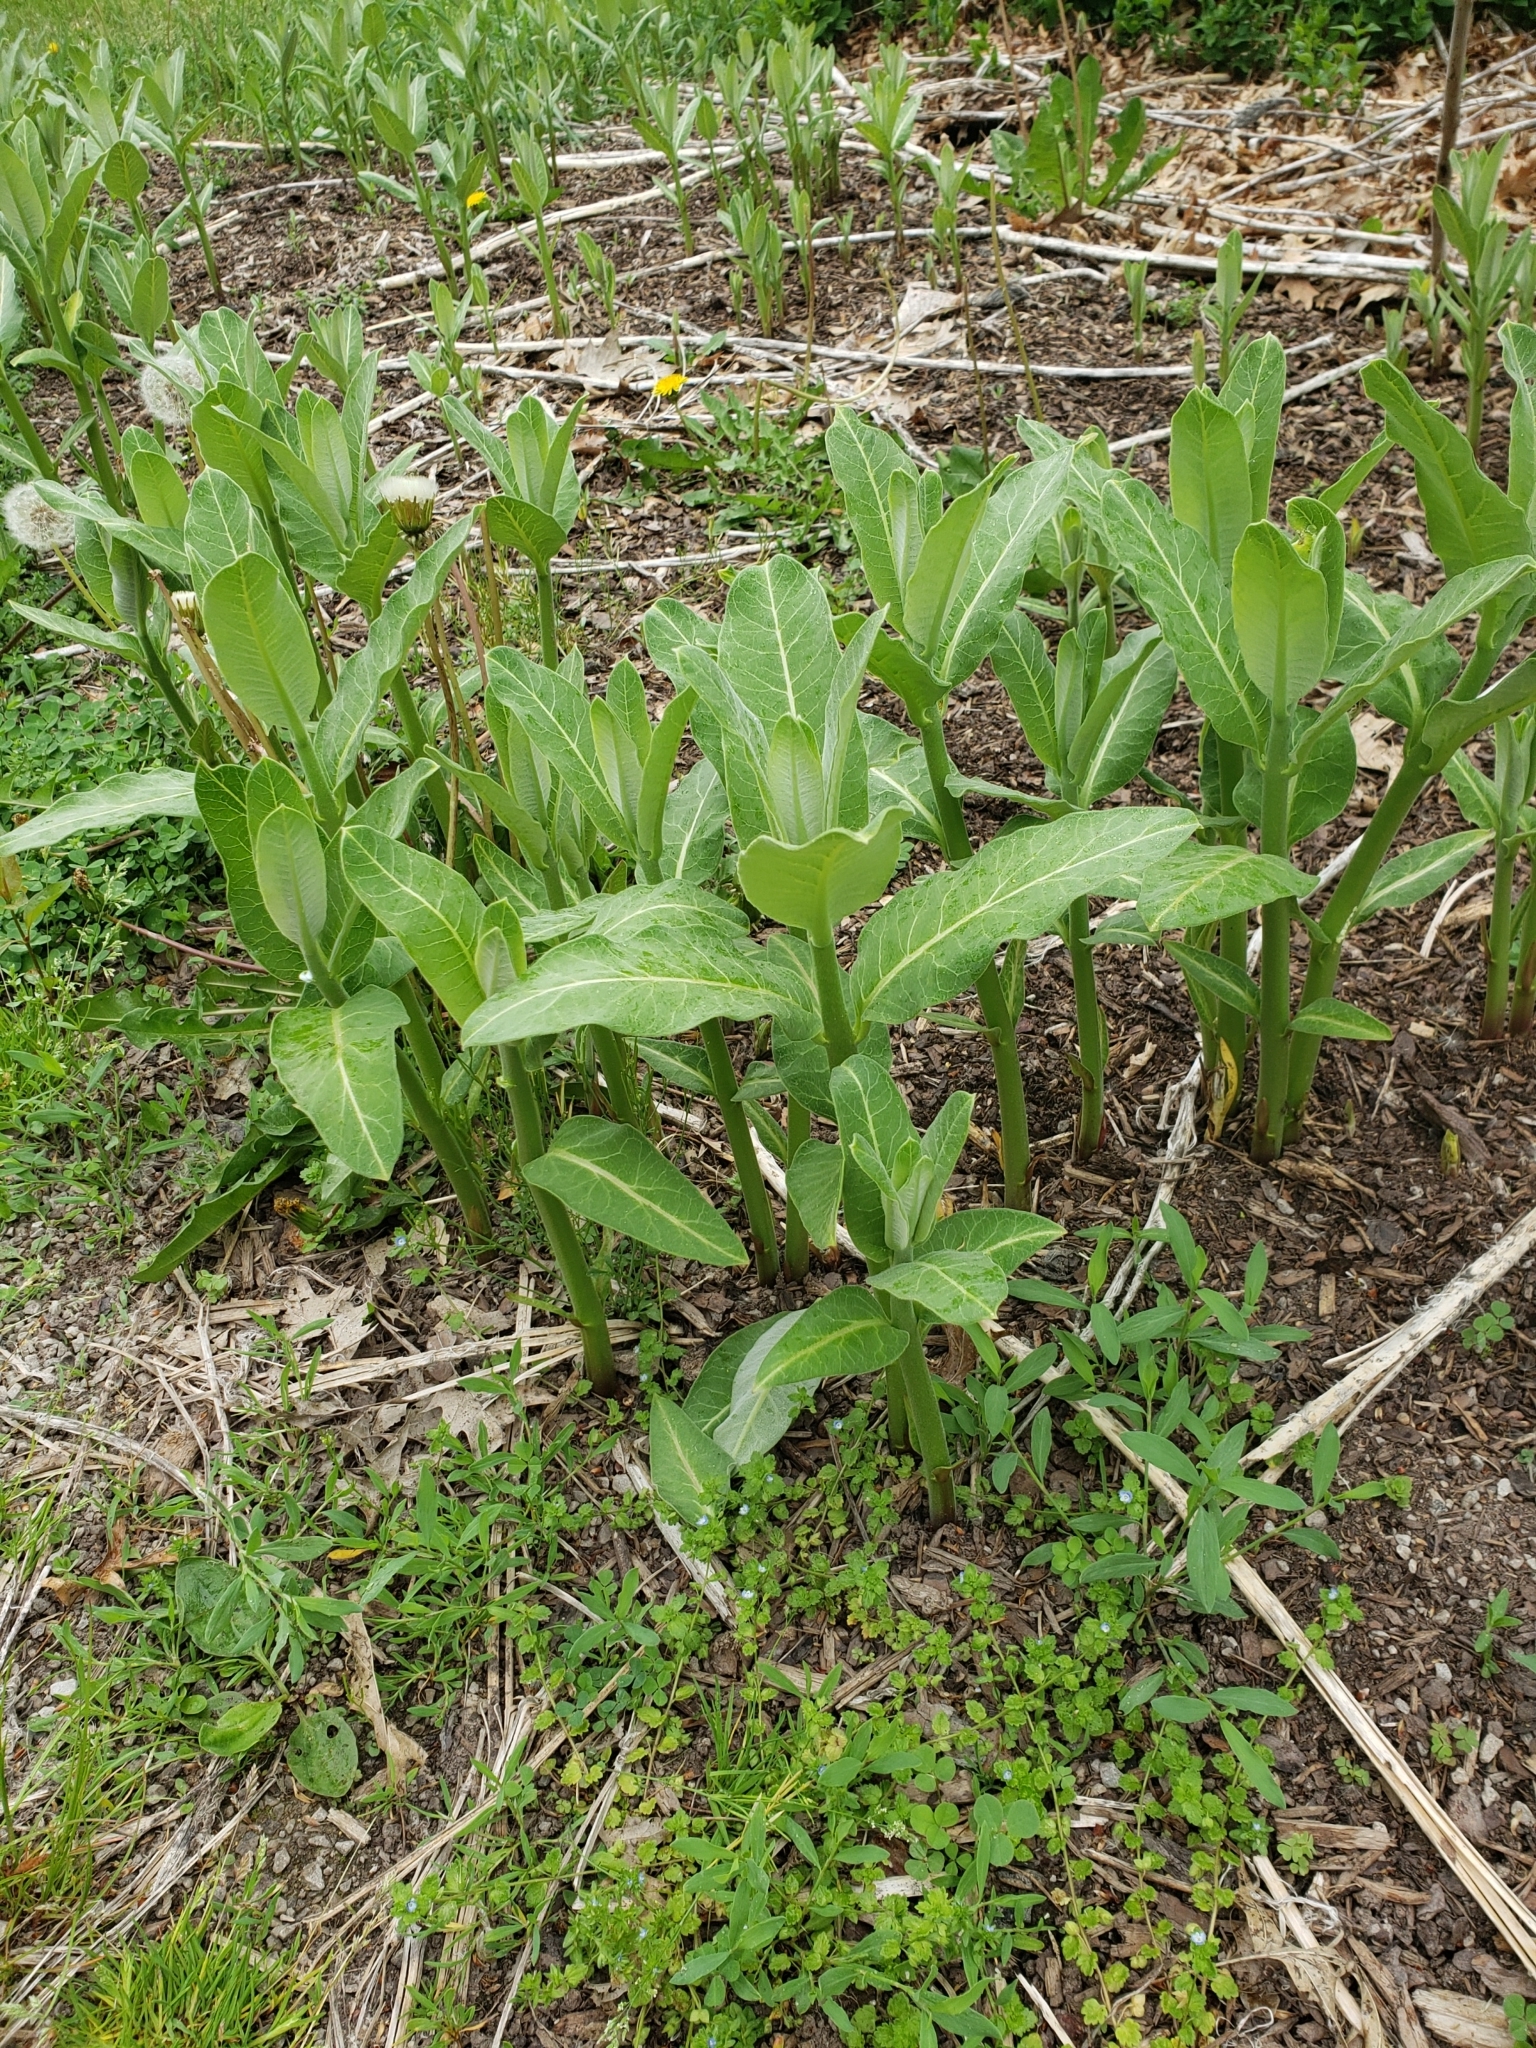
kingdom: Plantae
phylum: Tracheophyta
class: Magnoliopsida
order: Gentianales
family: Apocynaceae
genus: Asclepias
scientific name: Asclepias syriaca
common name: Common milkweed
